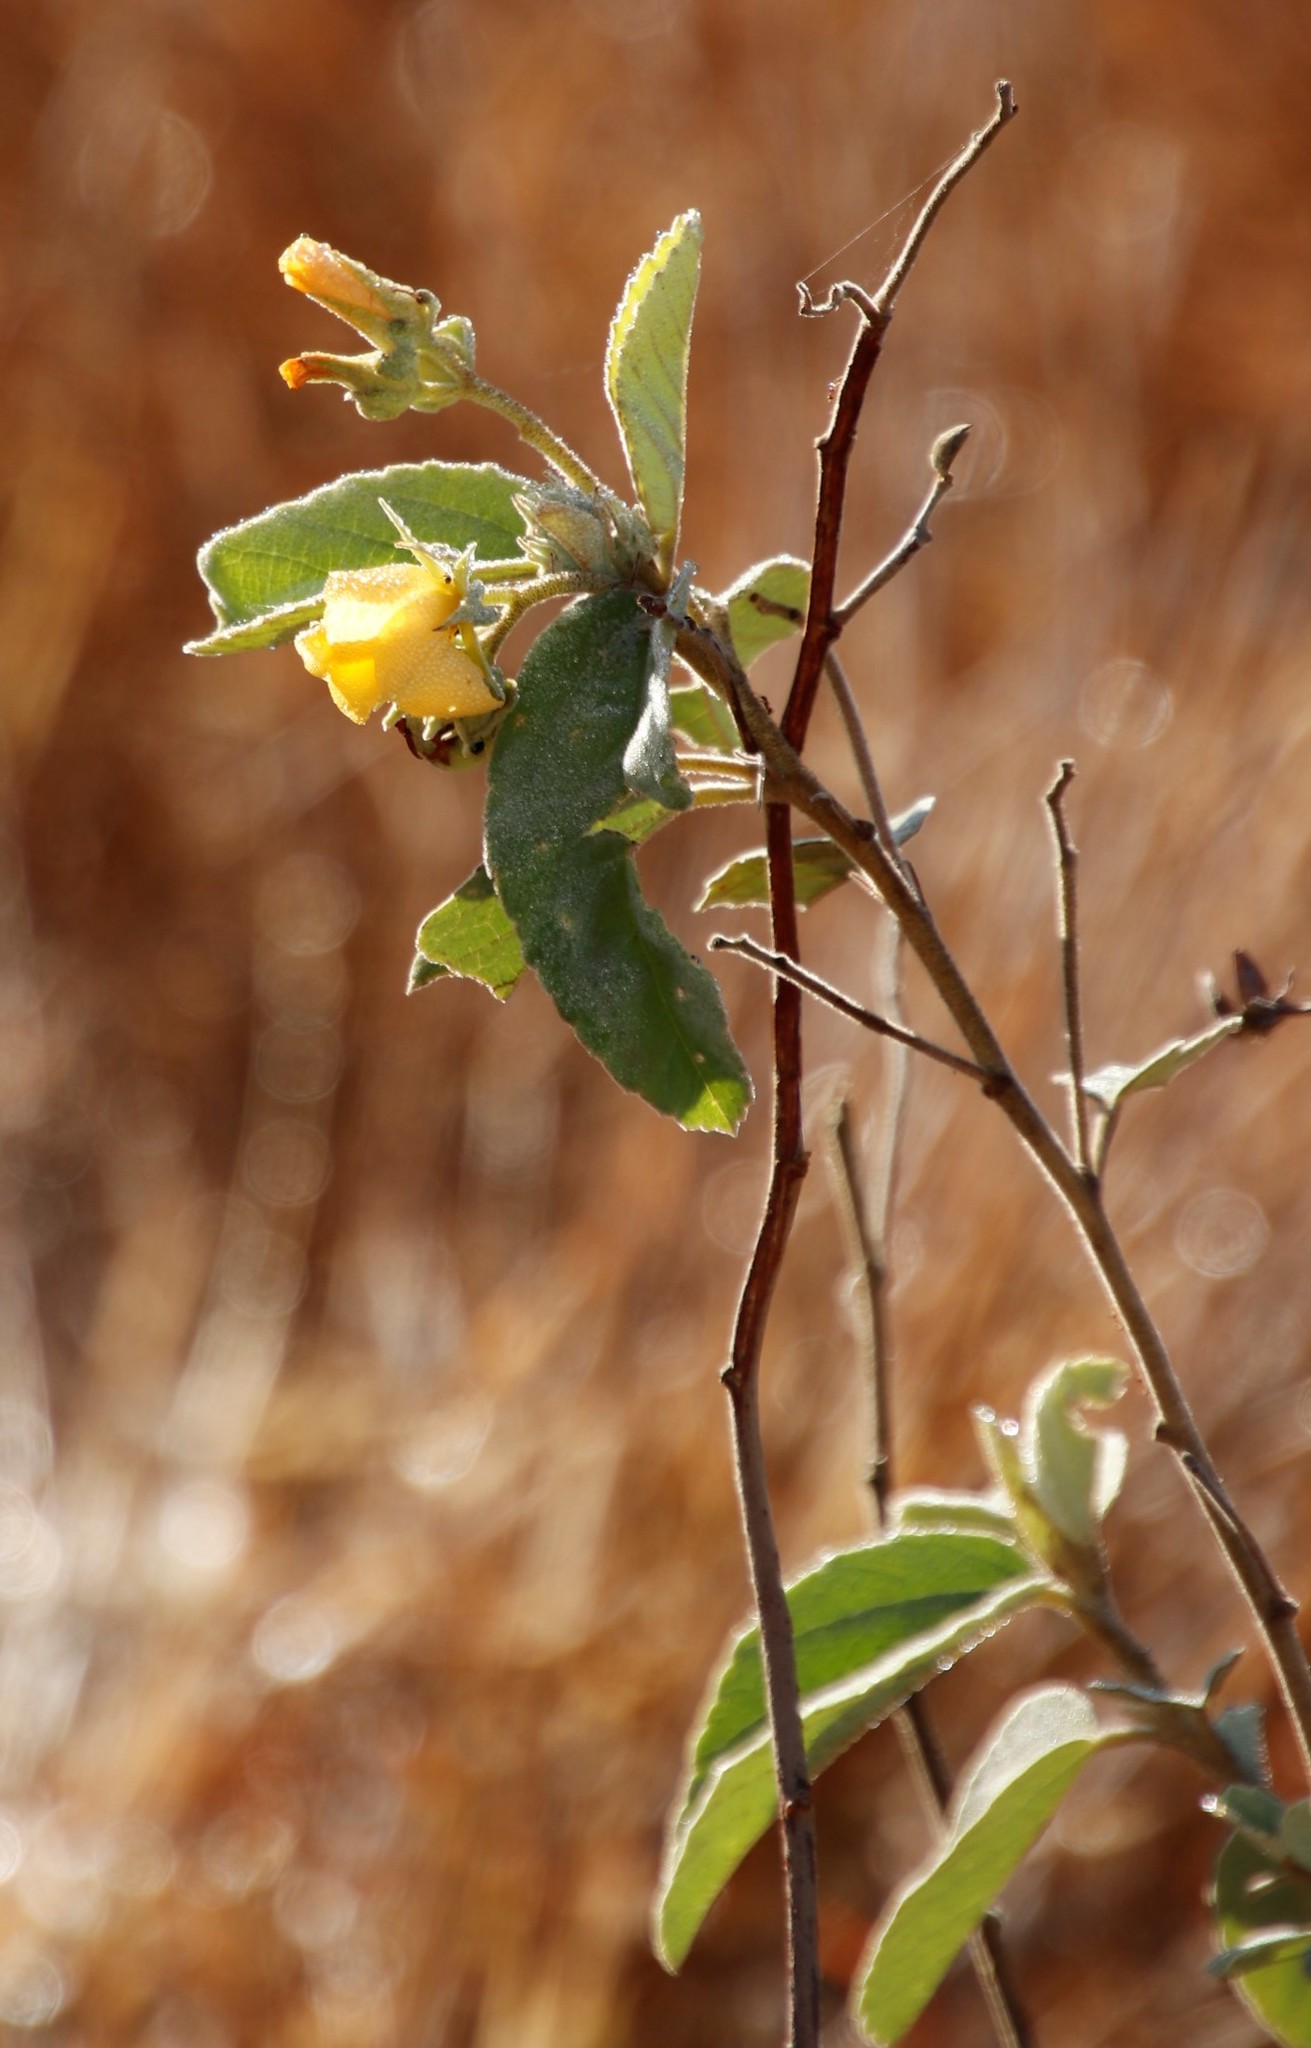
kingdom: Plantae
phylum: Tracheophyta
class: Magnoliopsida
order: Malvales
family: Malvaceae
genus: Melhania
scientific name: Melhania acuminata
